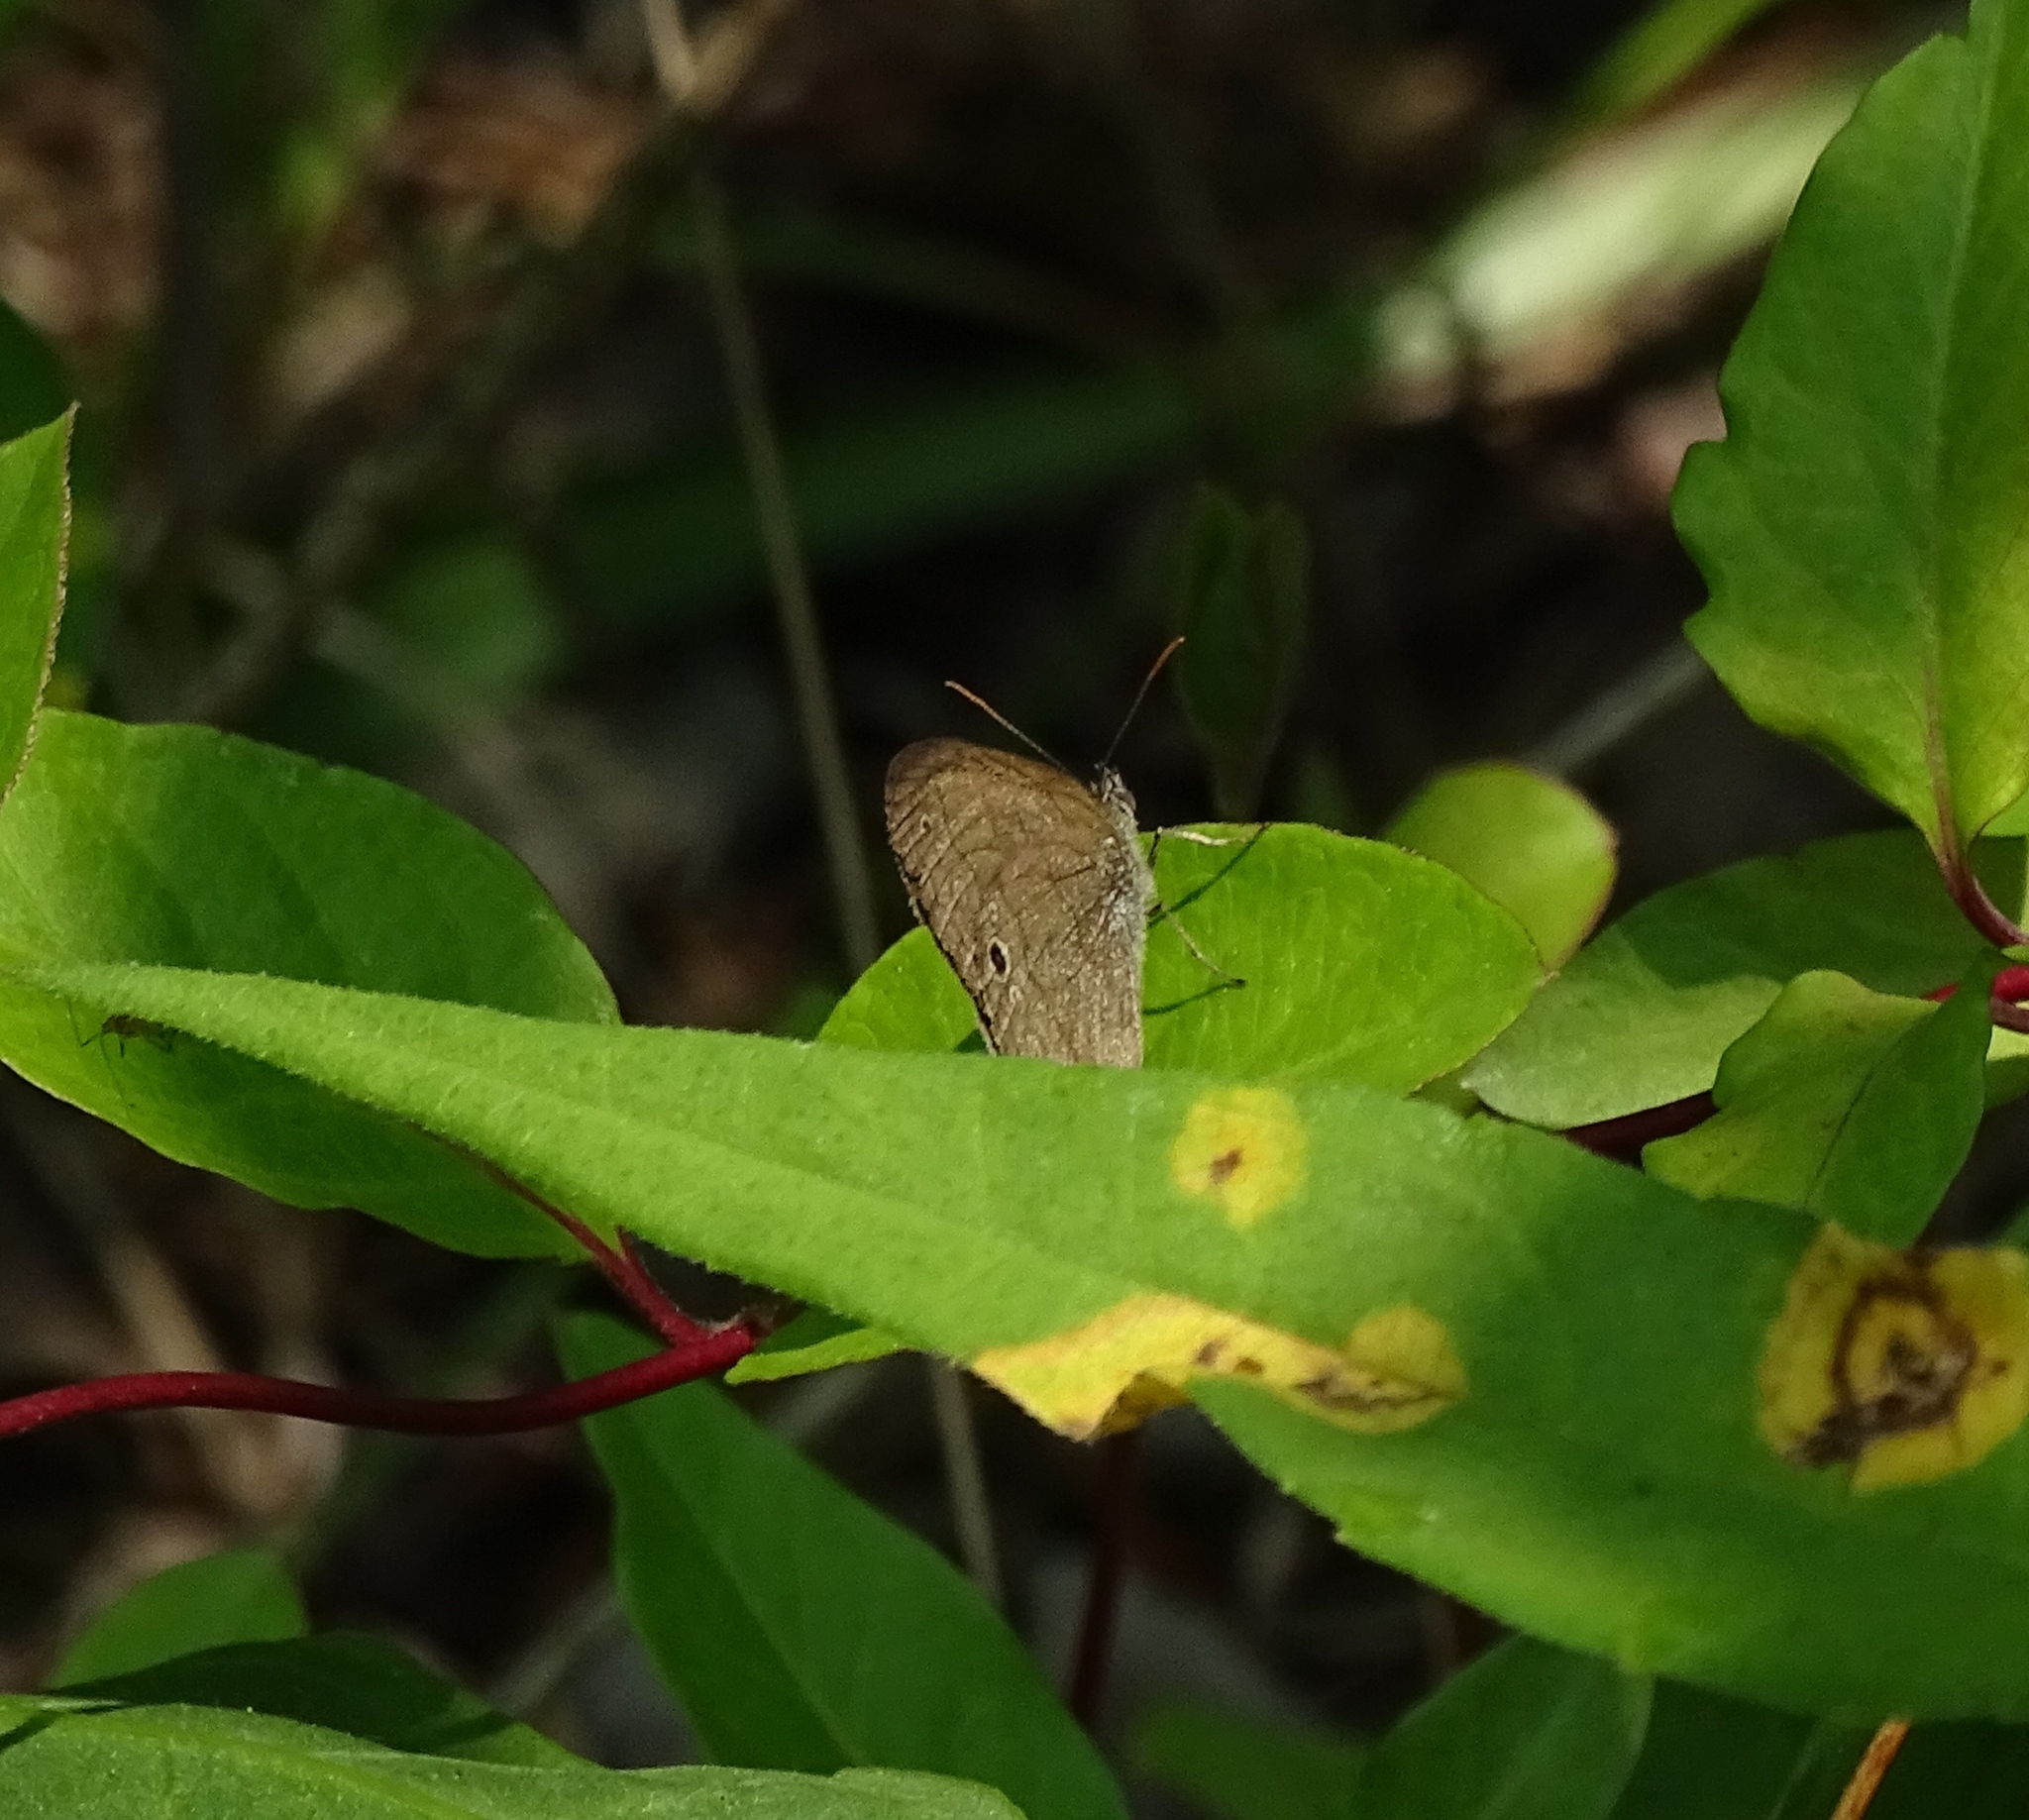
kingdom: Animalia
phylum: Arthropoda
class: Insecta
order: Lepidoptera
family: Nymphalidae
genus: Hermeuptychia
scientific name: Hermeuptychia hermes
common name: Hermes satyr
